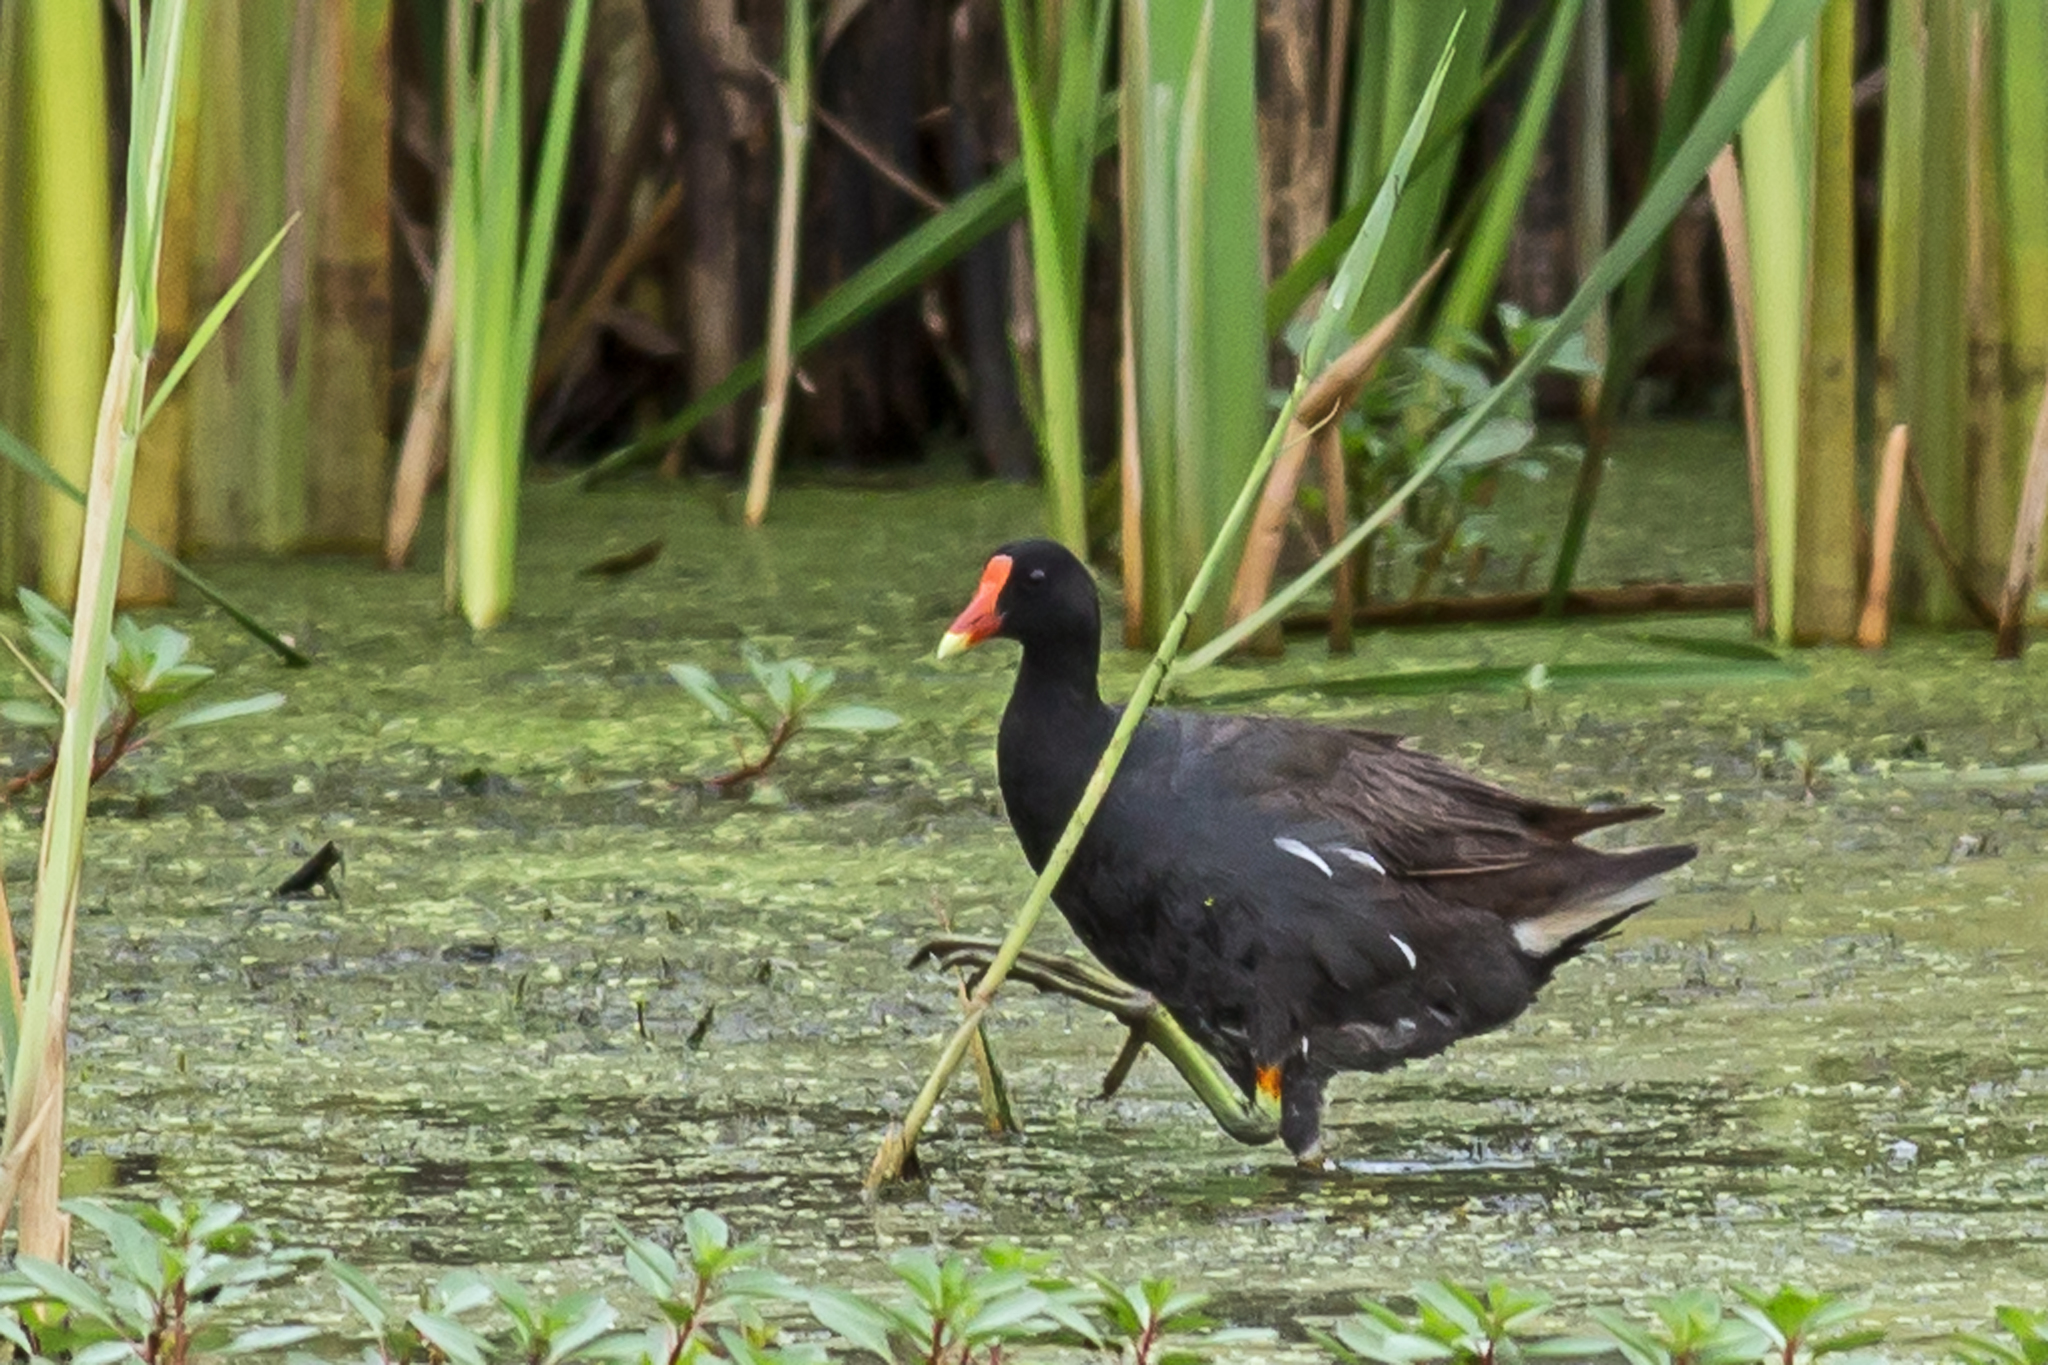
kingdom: Animalia
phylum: Chordata
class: Aves
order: Gruiformes
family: Rallidae
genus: Gallinula
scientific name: Gallinula chloropus
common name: Common moorhen
